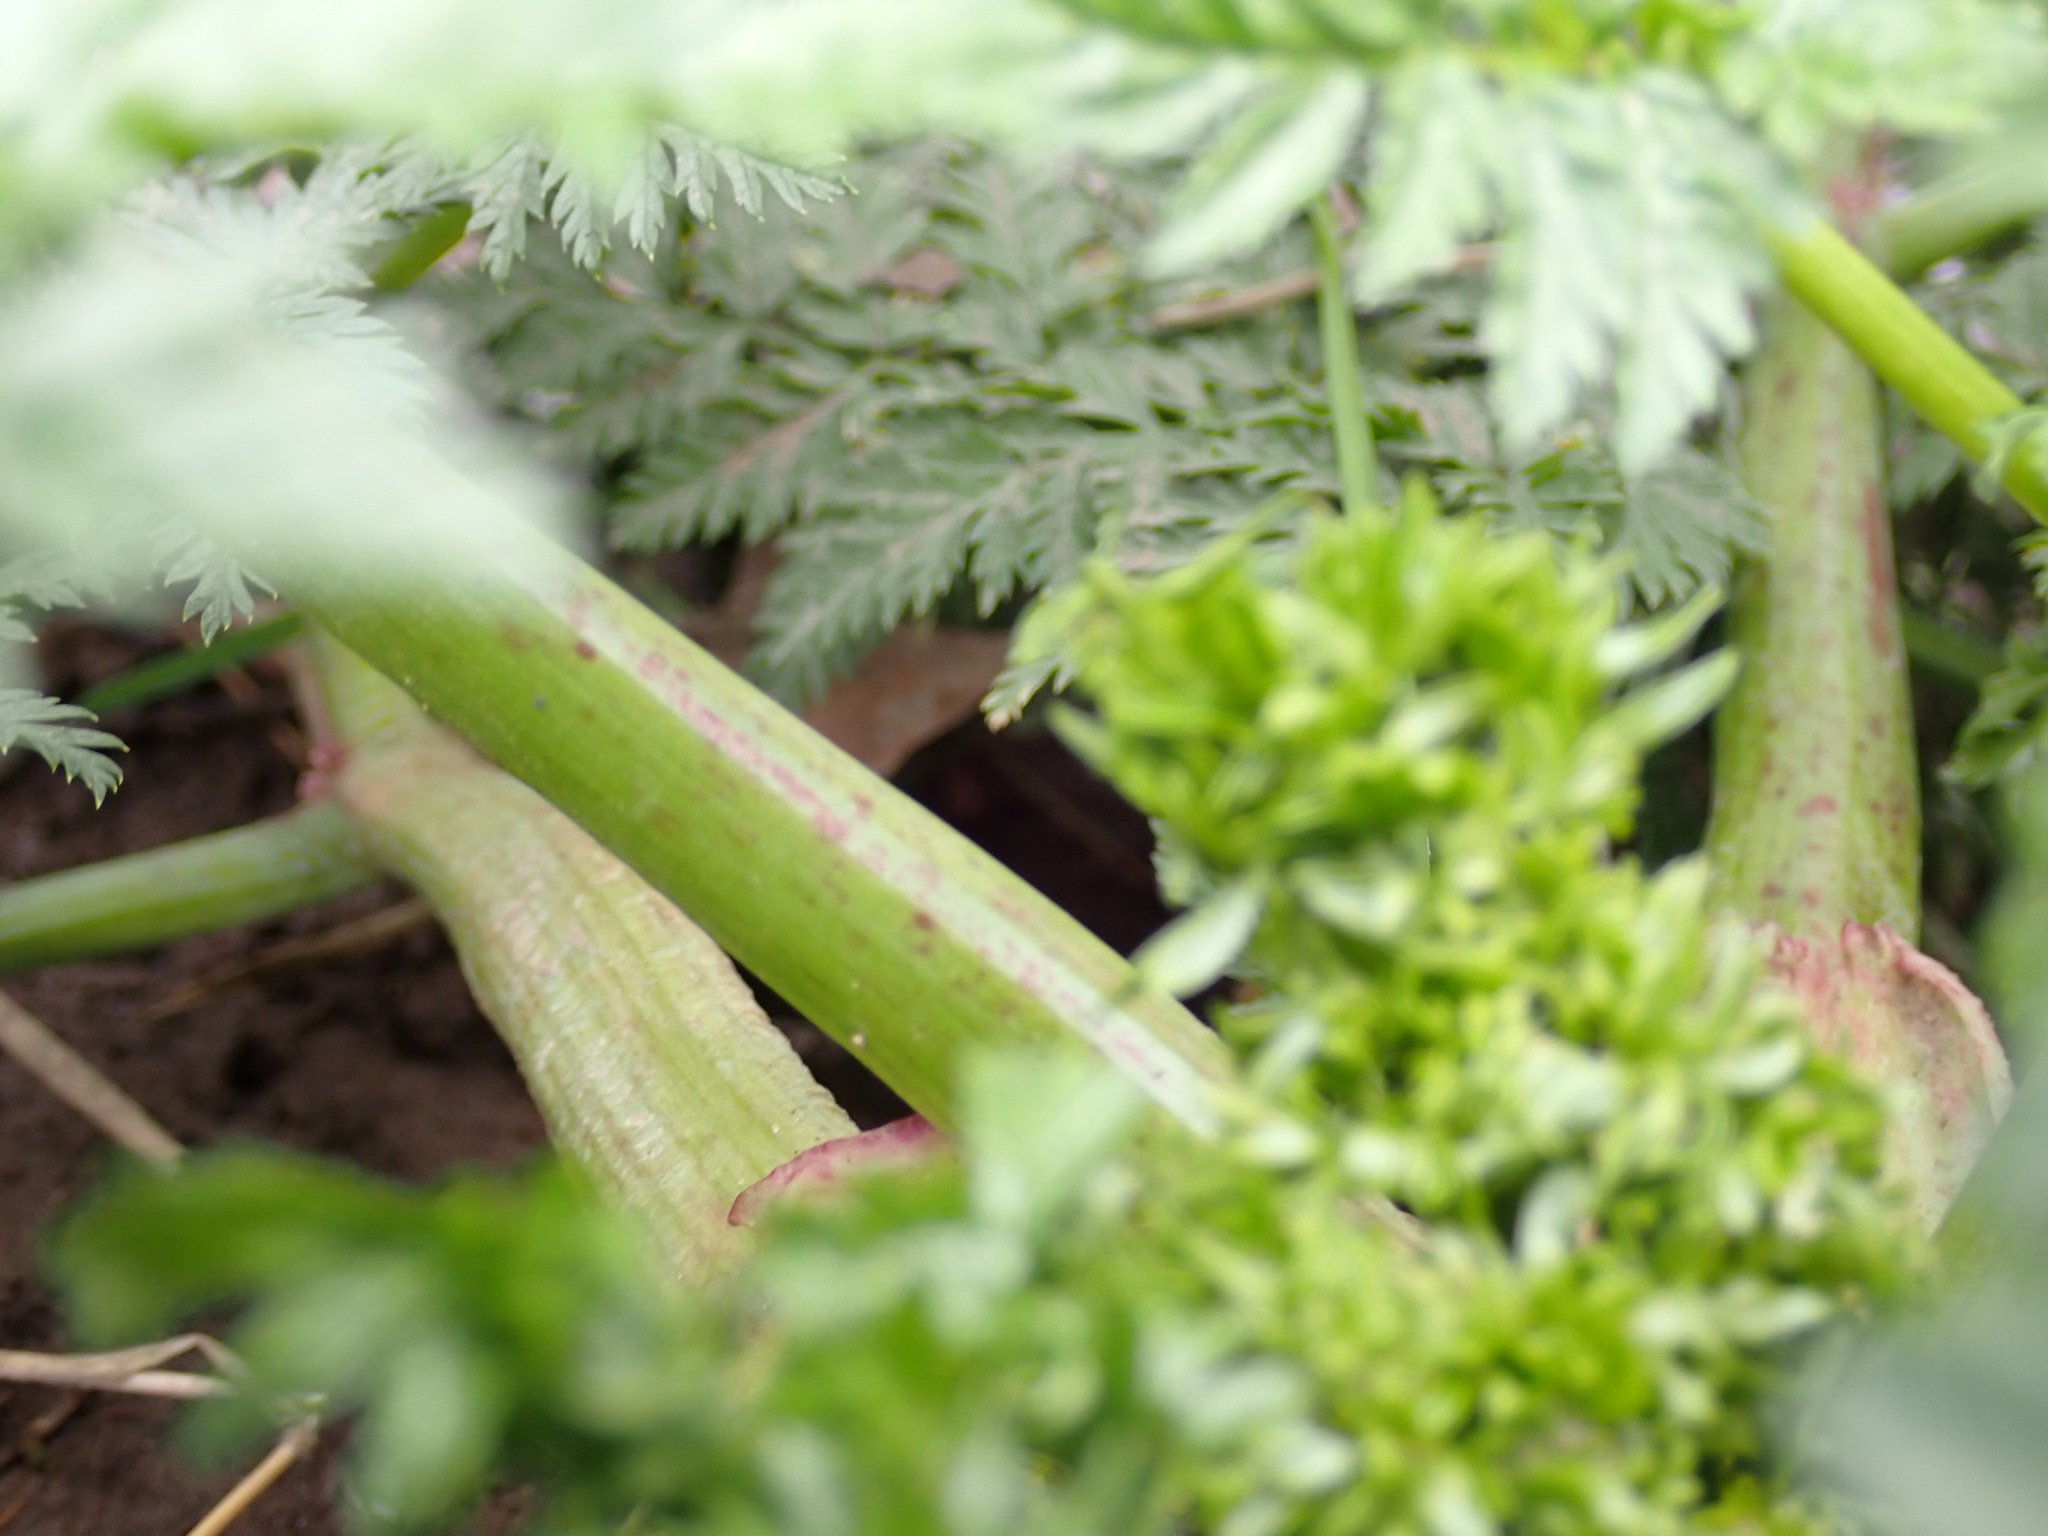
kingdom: Plantae
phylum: Tracheophyta
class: Magnoliopsida
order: Apiales
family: Apiaceae
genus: Conium
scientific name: Conium maculatum
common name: Hemlock
